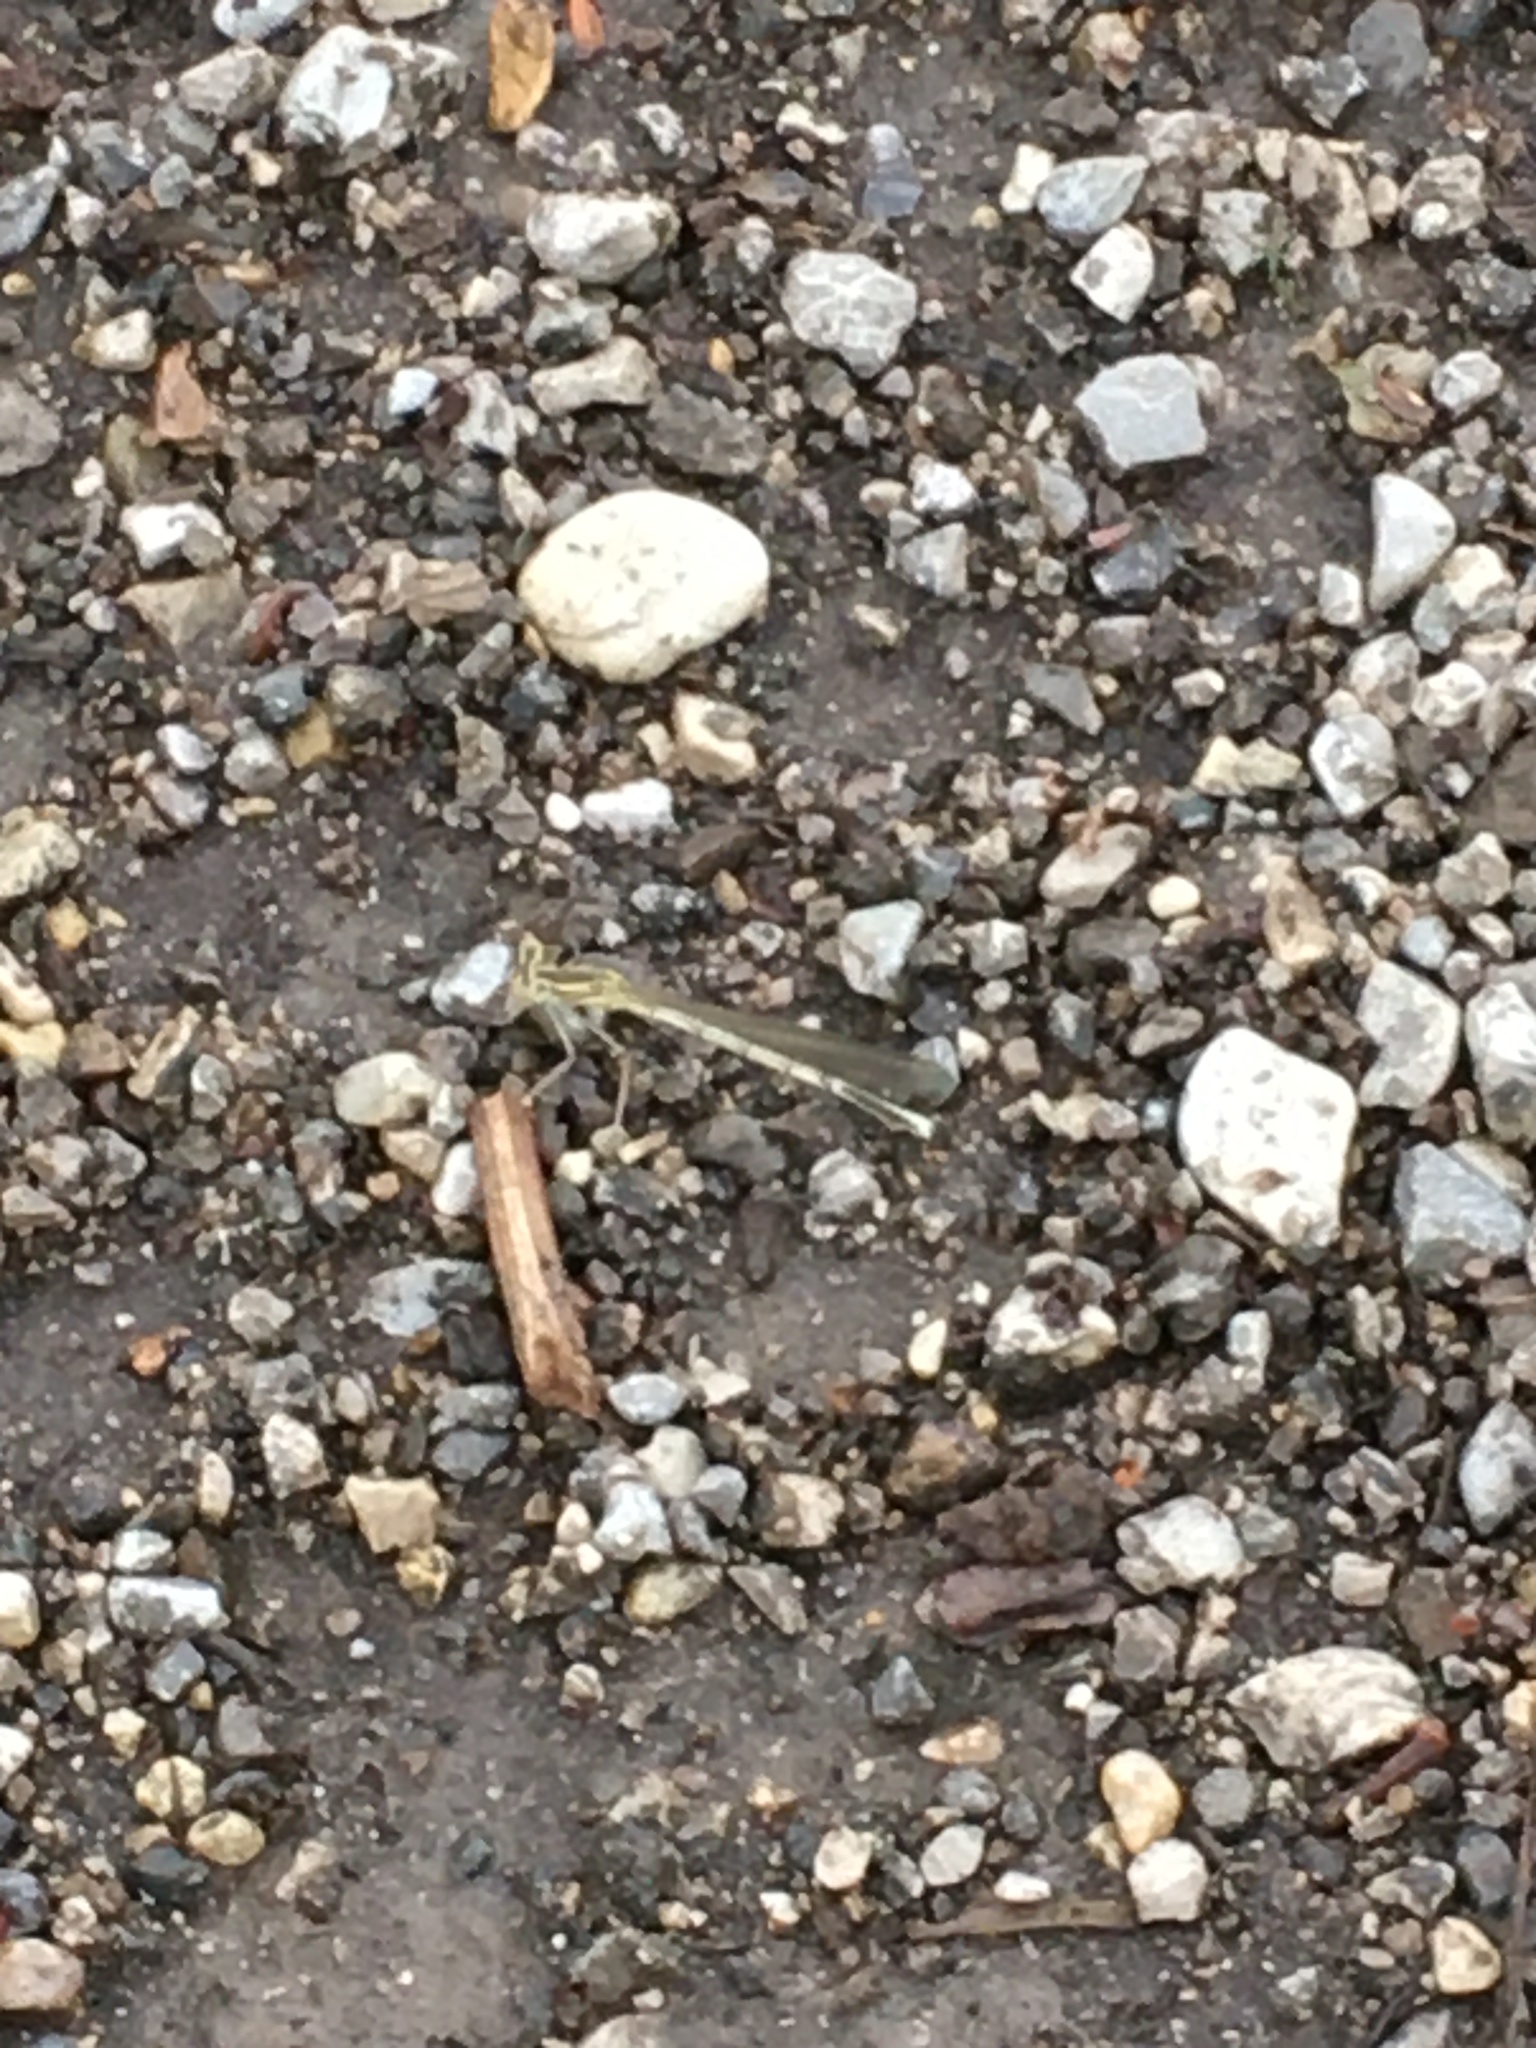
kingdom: Animalia
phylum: Arthropoda
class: Insecta
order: Odonata
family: Platycnemididae
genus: Platycnemis
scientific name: Platycnemis pennipes
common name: White-legged damselfly
